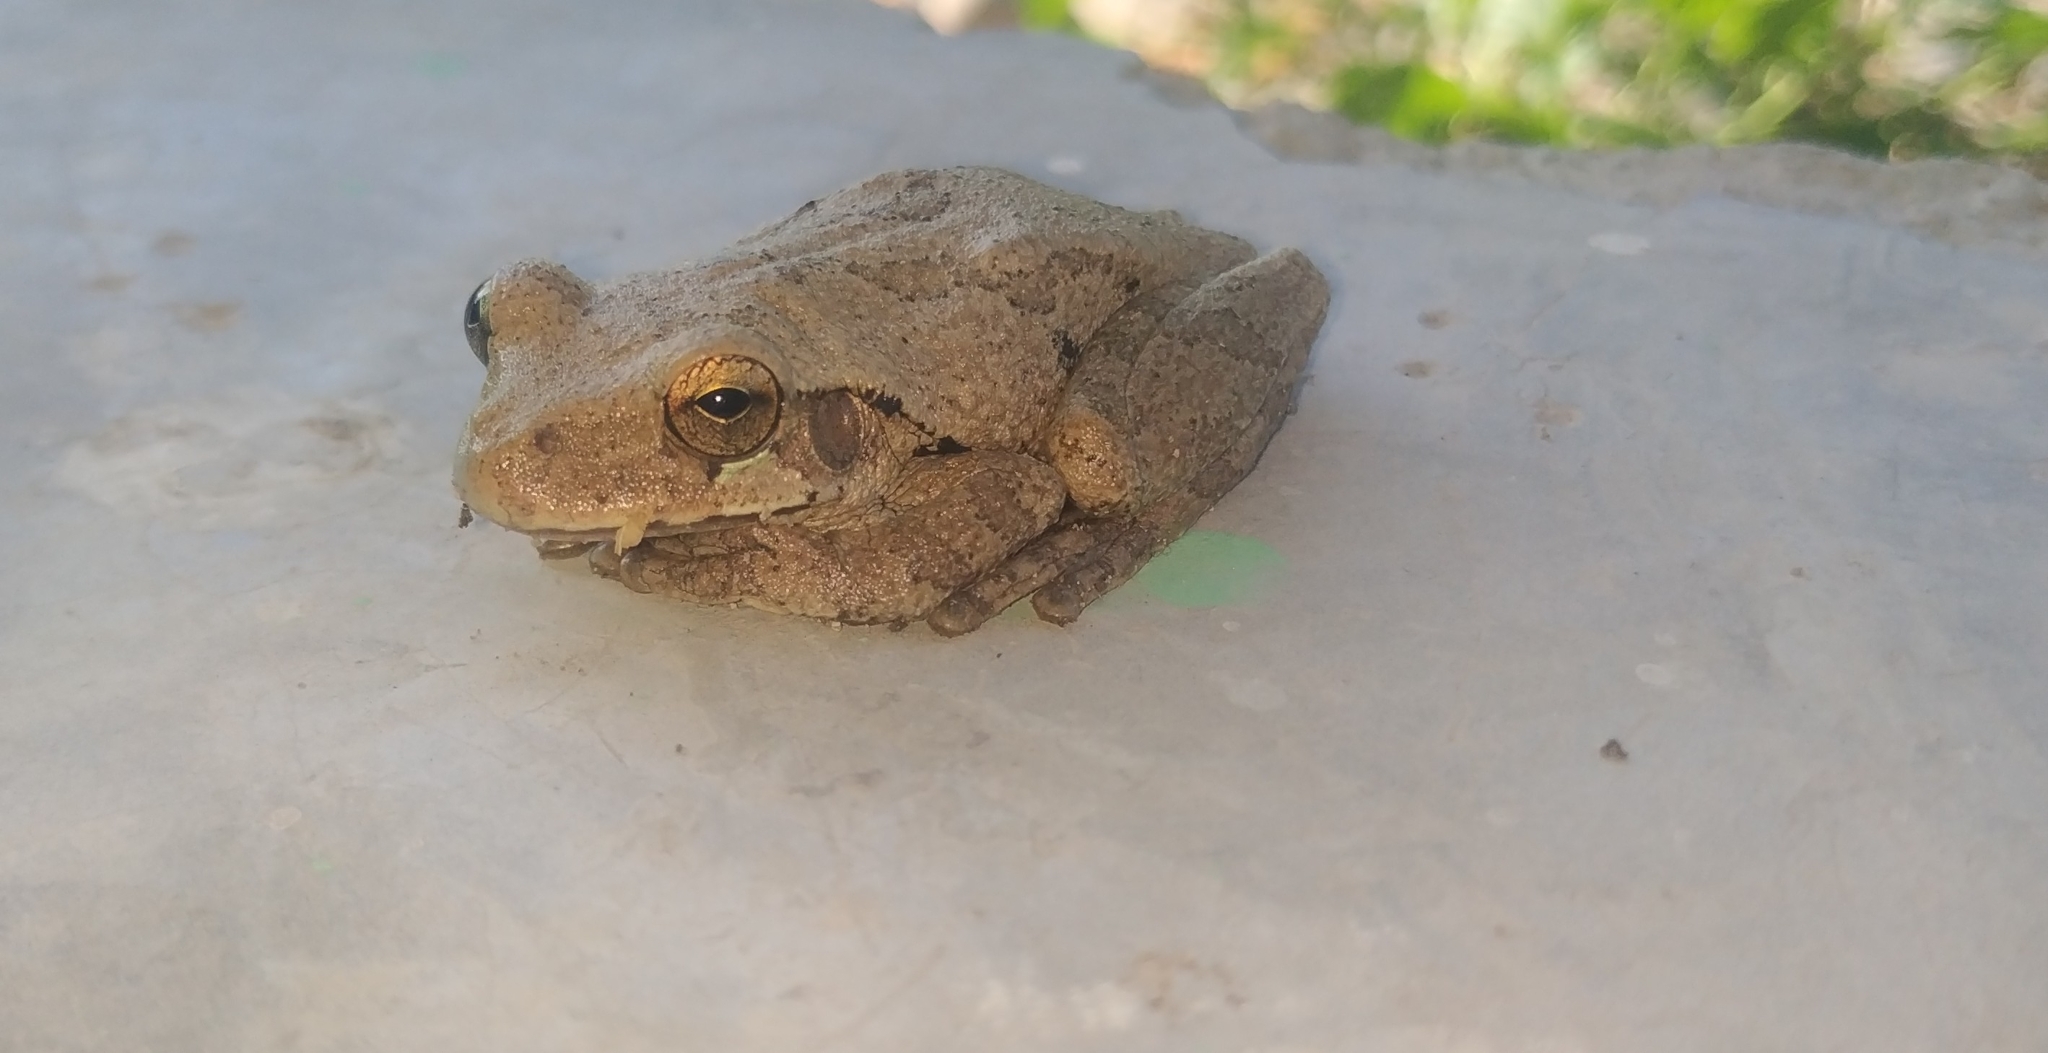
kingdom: Animalia
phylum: Chordata
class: Amphibia
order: Anura
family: Hylidae
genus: Smilisca
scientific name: Smilisca baudinii
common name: Mexican smilisca
